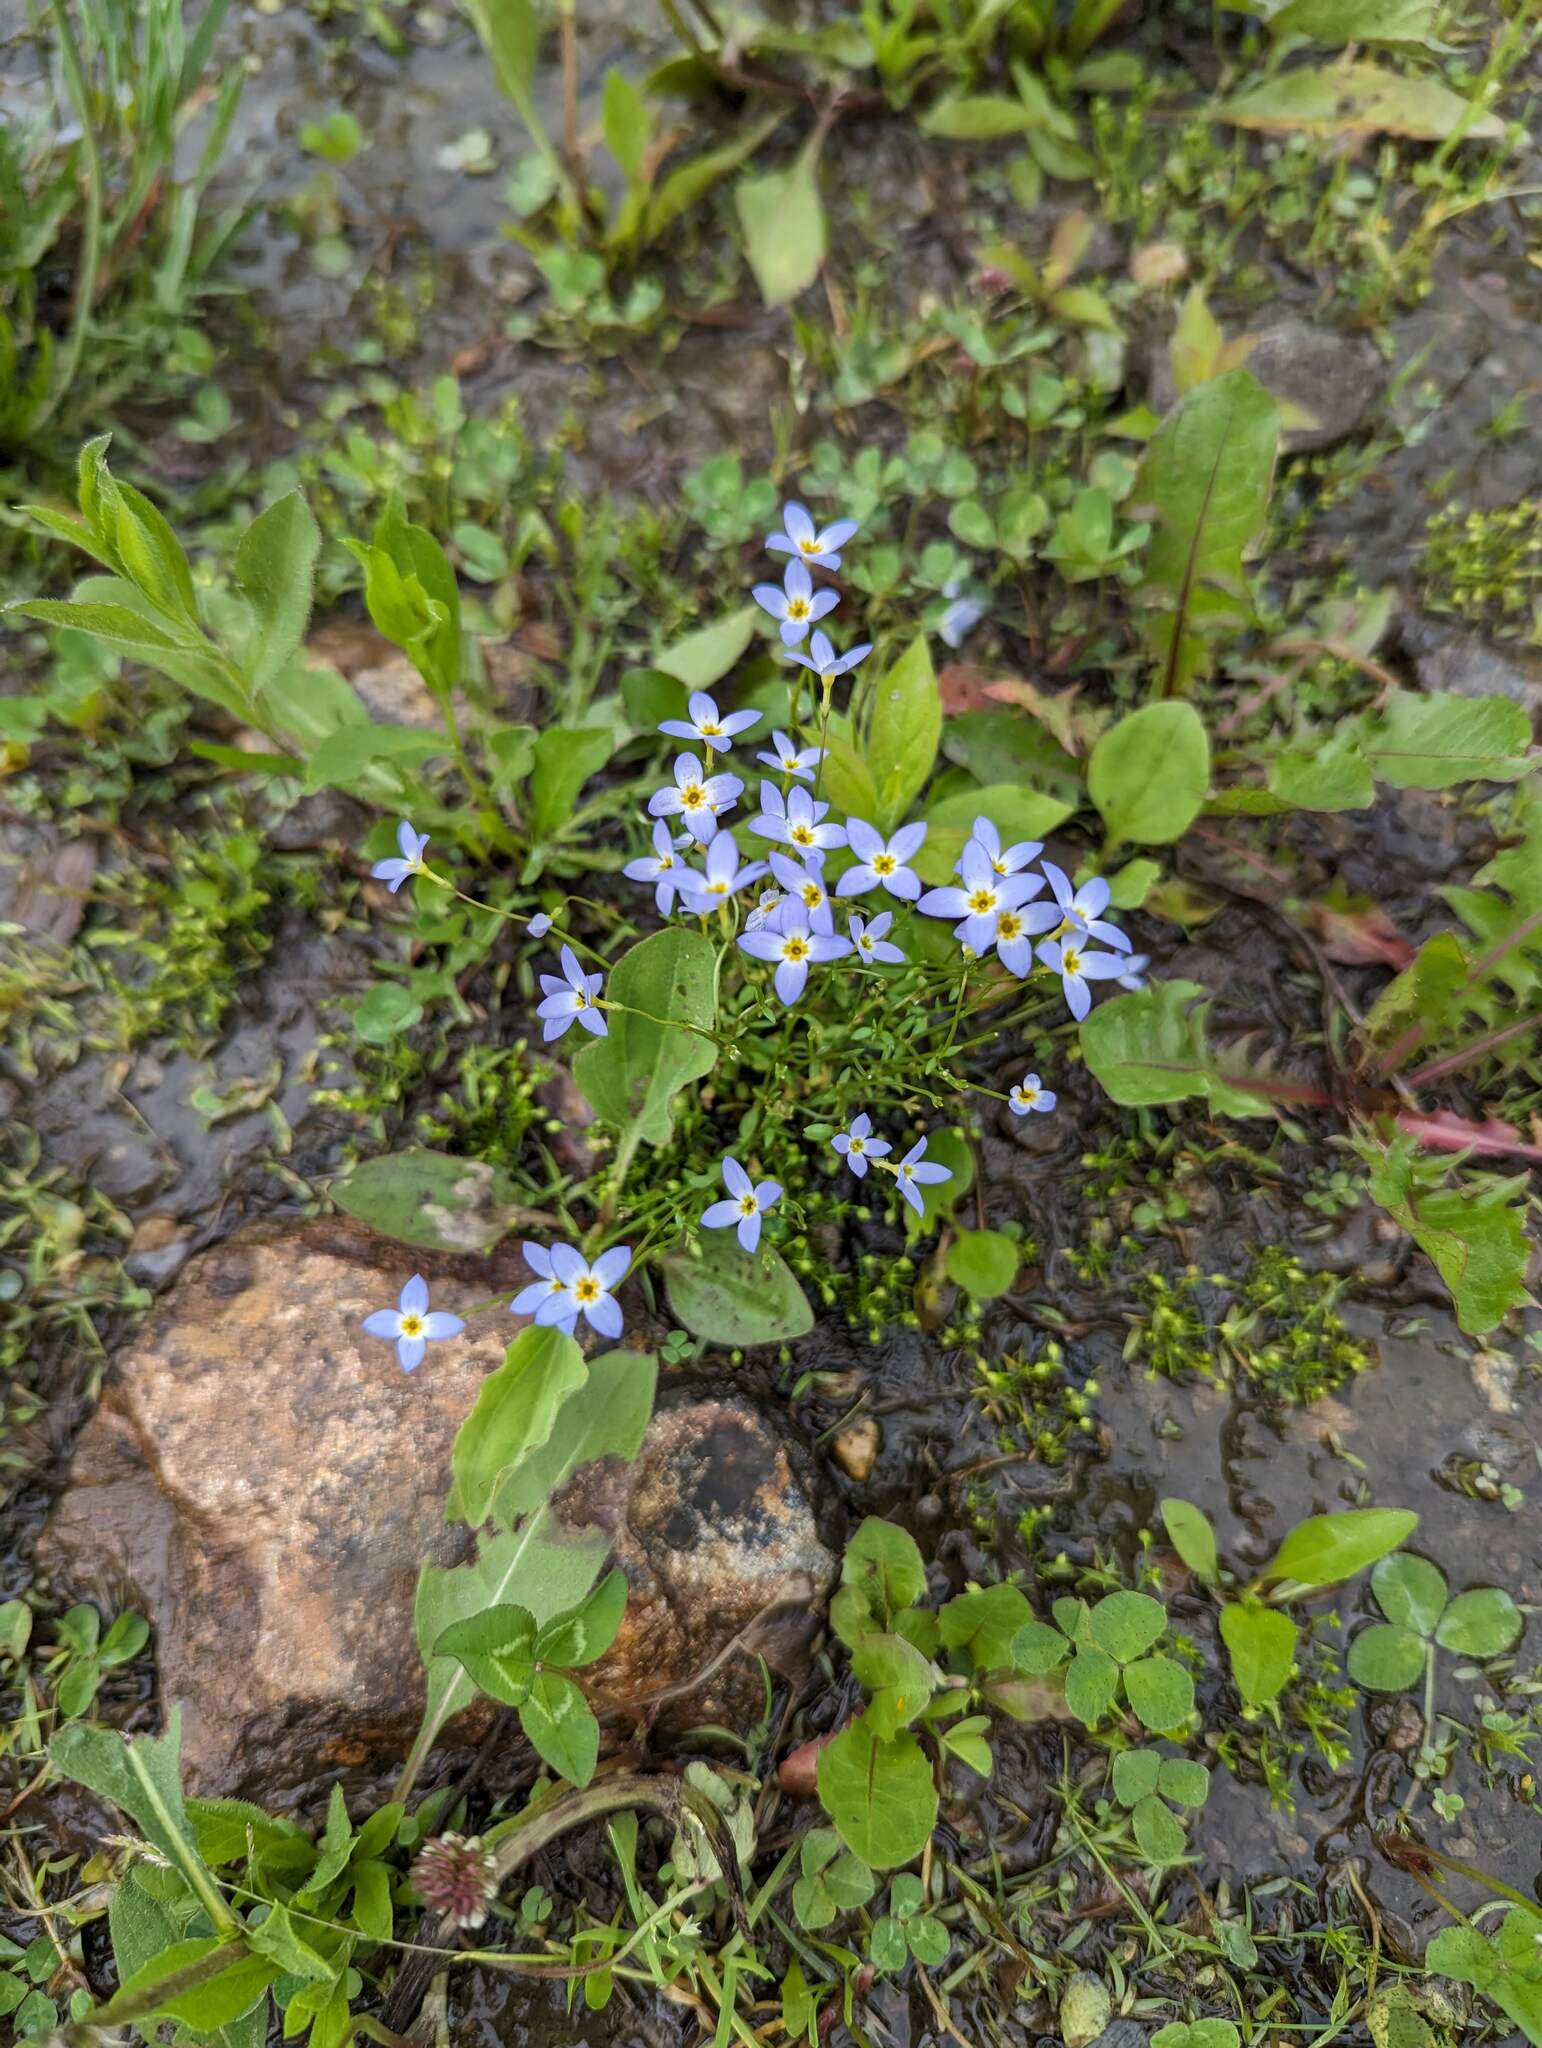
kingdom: Plantae
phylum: Tracheophyta
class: Magnoliopsida
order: Gentianales
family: Rubiaceae
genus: Houstonia
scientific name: Houstonia caerulea
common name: Bluets
